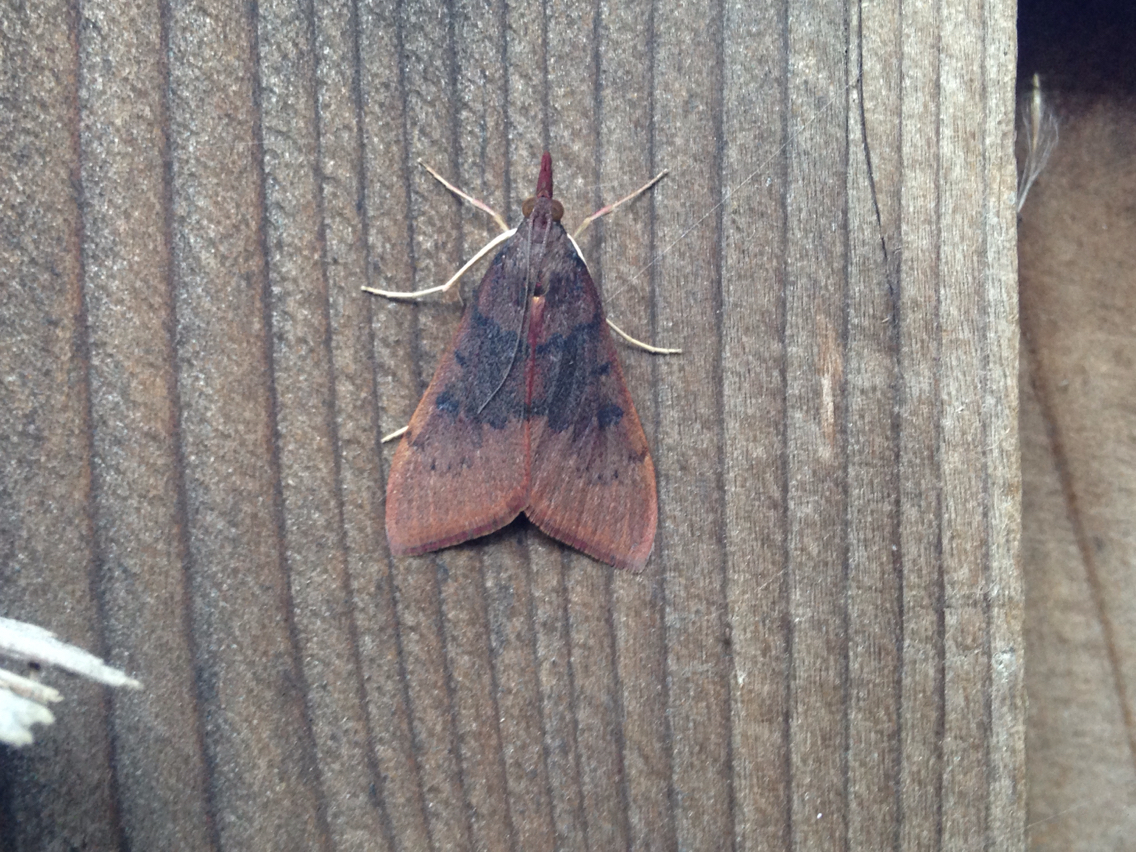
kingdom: Animalia
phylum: Arthropoda
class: Insecta
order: Lepidoptera
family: Crambidae
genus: Uresiphita
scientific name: Uresiphita reversalis
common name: Genista broom moth
